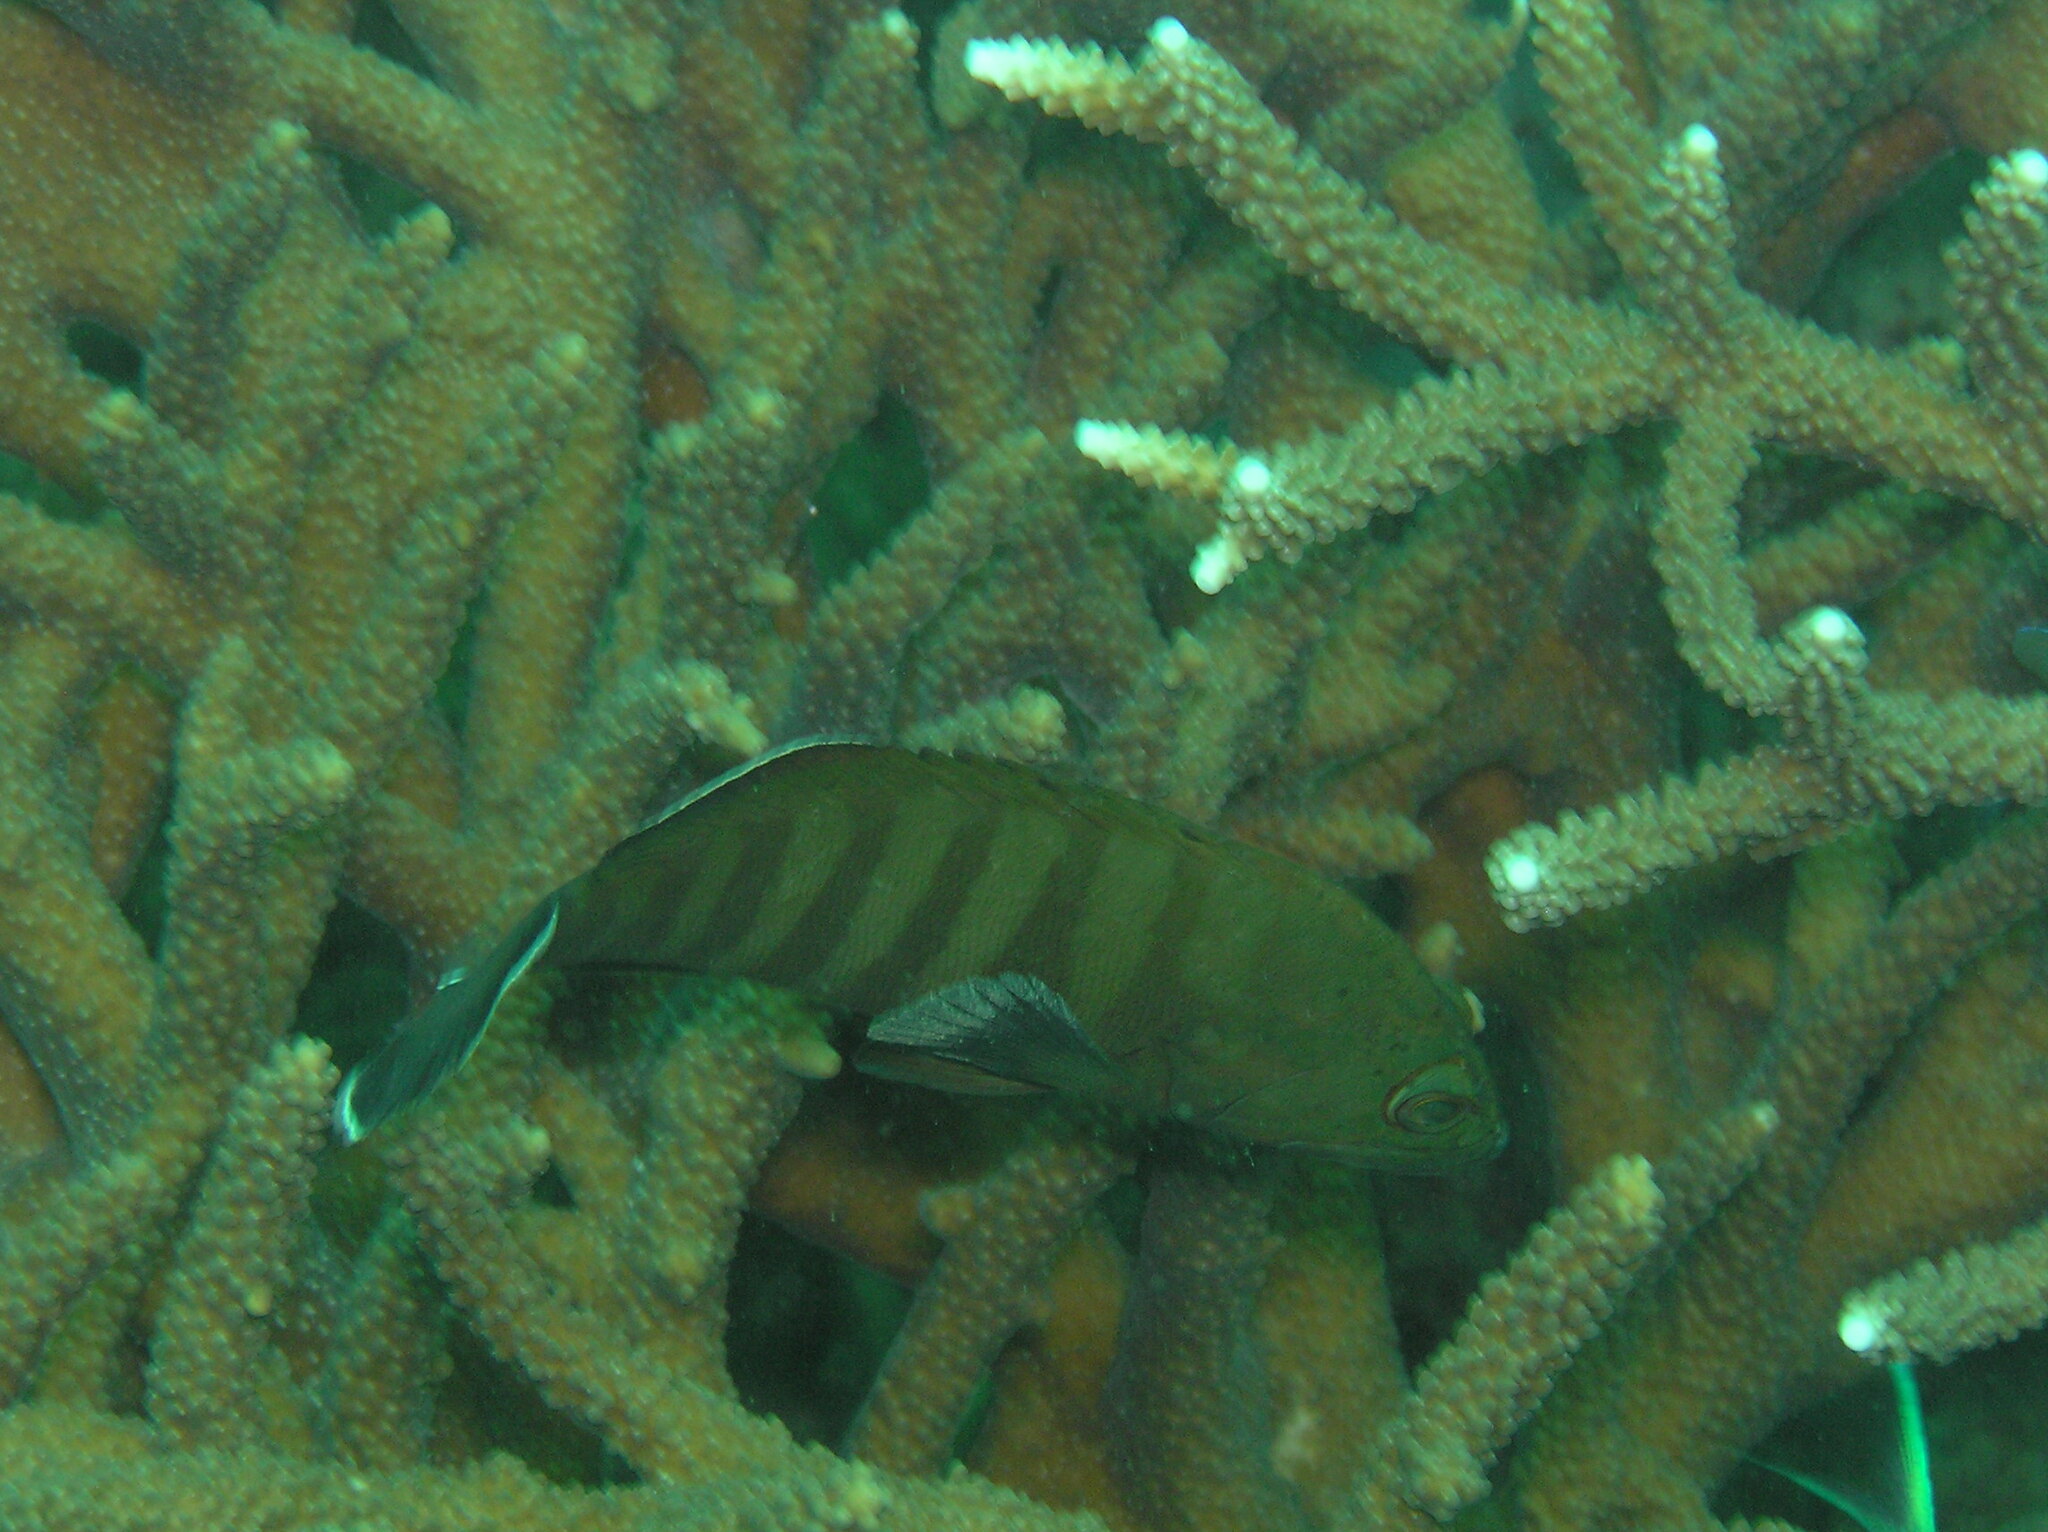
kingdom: Animalia
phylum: Chordata
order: Perciformes
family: Serranidae
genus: Cephalopholis
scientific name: Cephalopholis boenak
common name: Chocolate hind
